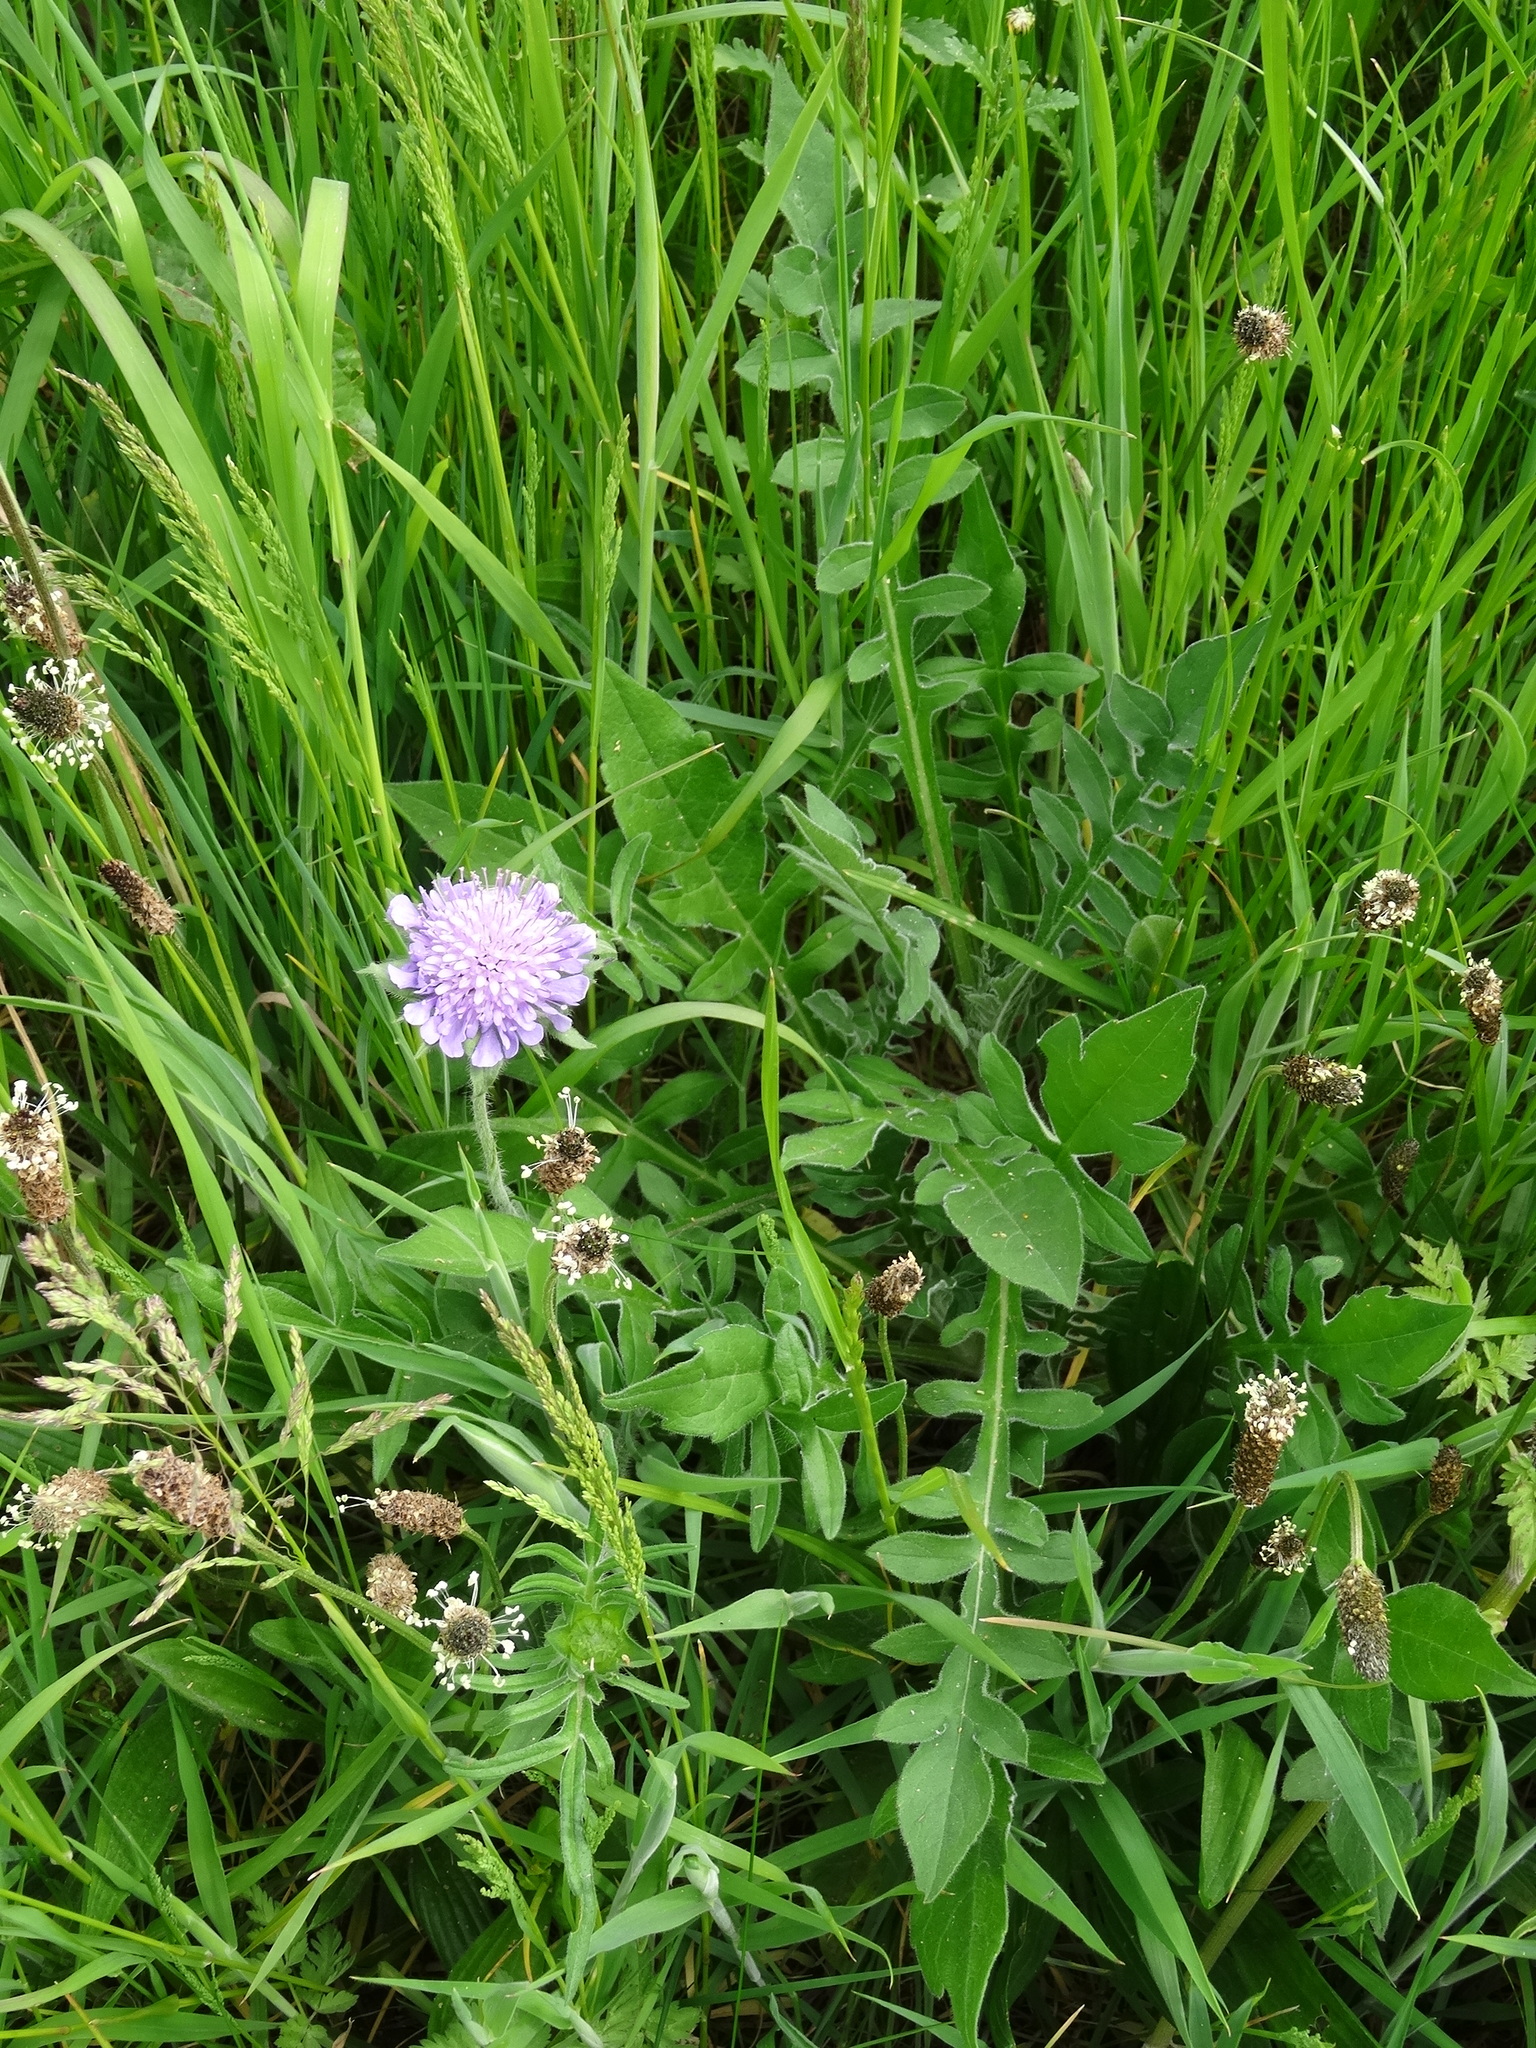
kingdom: Plantae
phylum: Tracheophyta
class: Magnoliopsida
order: Dipsacales
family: Caprifoliaceae
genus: Knautia
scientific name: Knautia arvensis
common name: Field scabiosa
